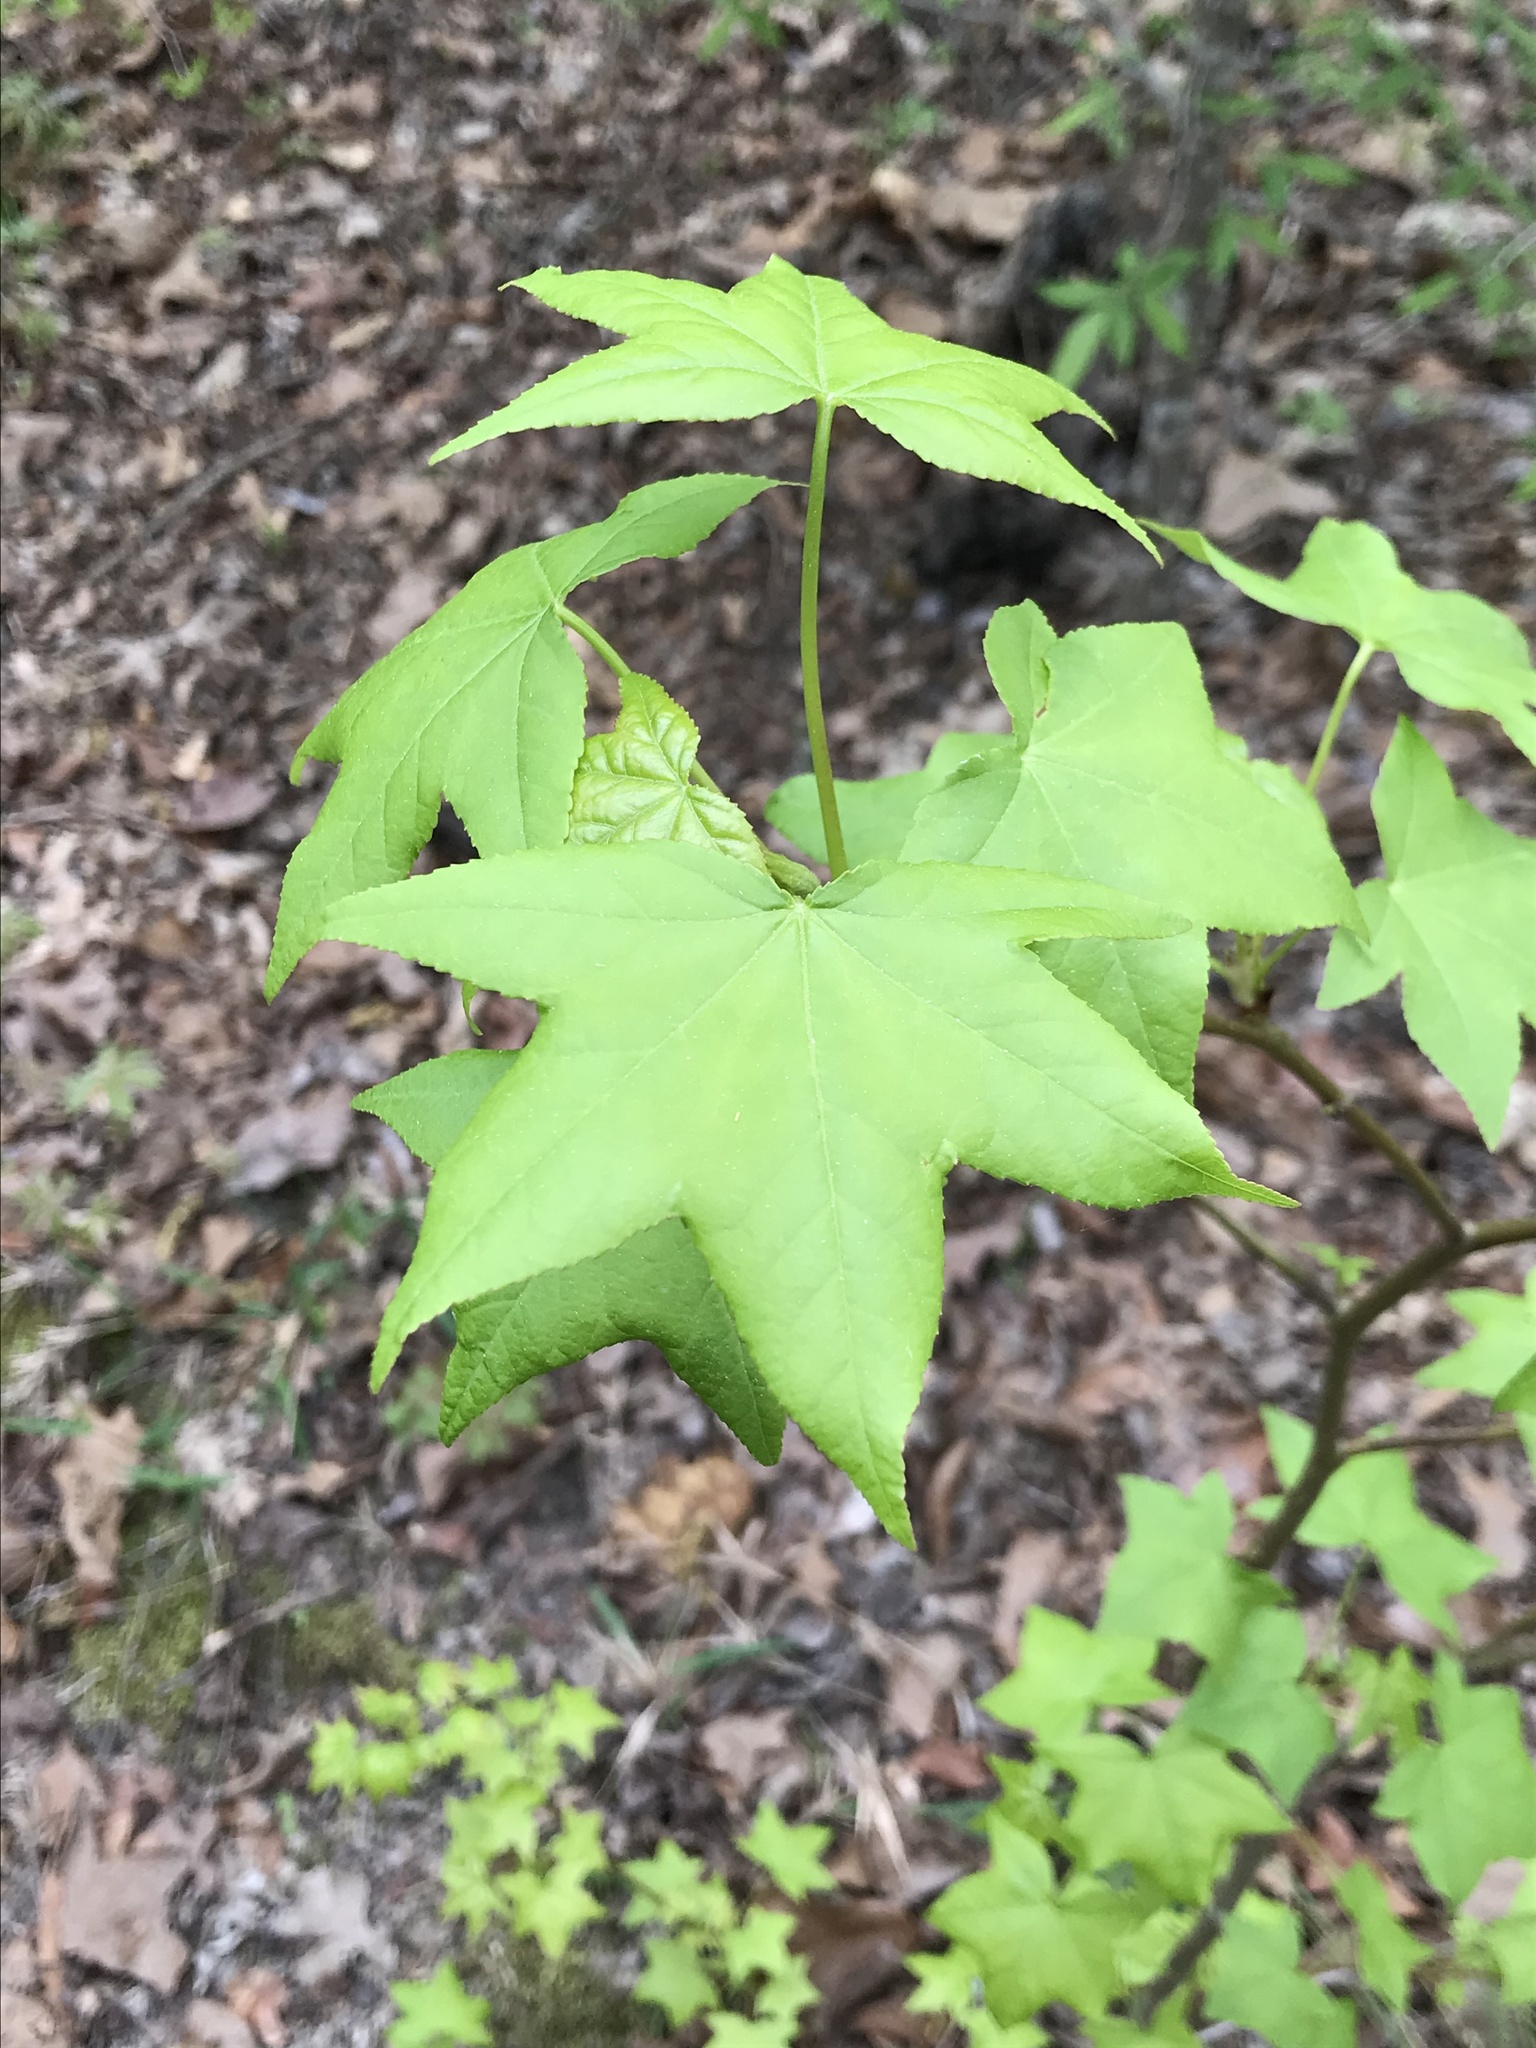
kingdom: Plantae
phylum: Tracheophyta
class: Magnoliopsida
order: Saxifragales
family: Altingiaceae
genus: Liquidambar
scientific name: Liquidambar styraciflua
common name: Sweet gum
